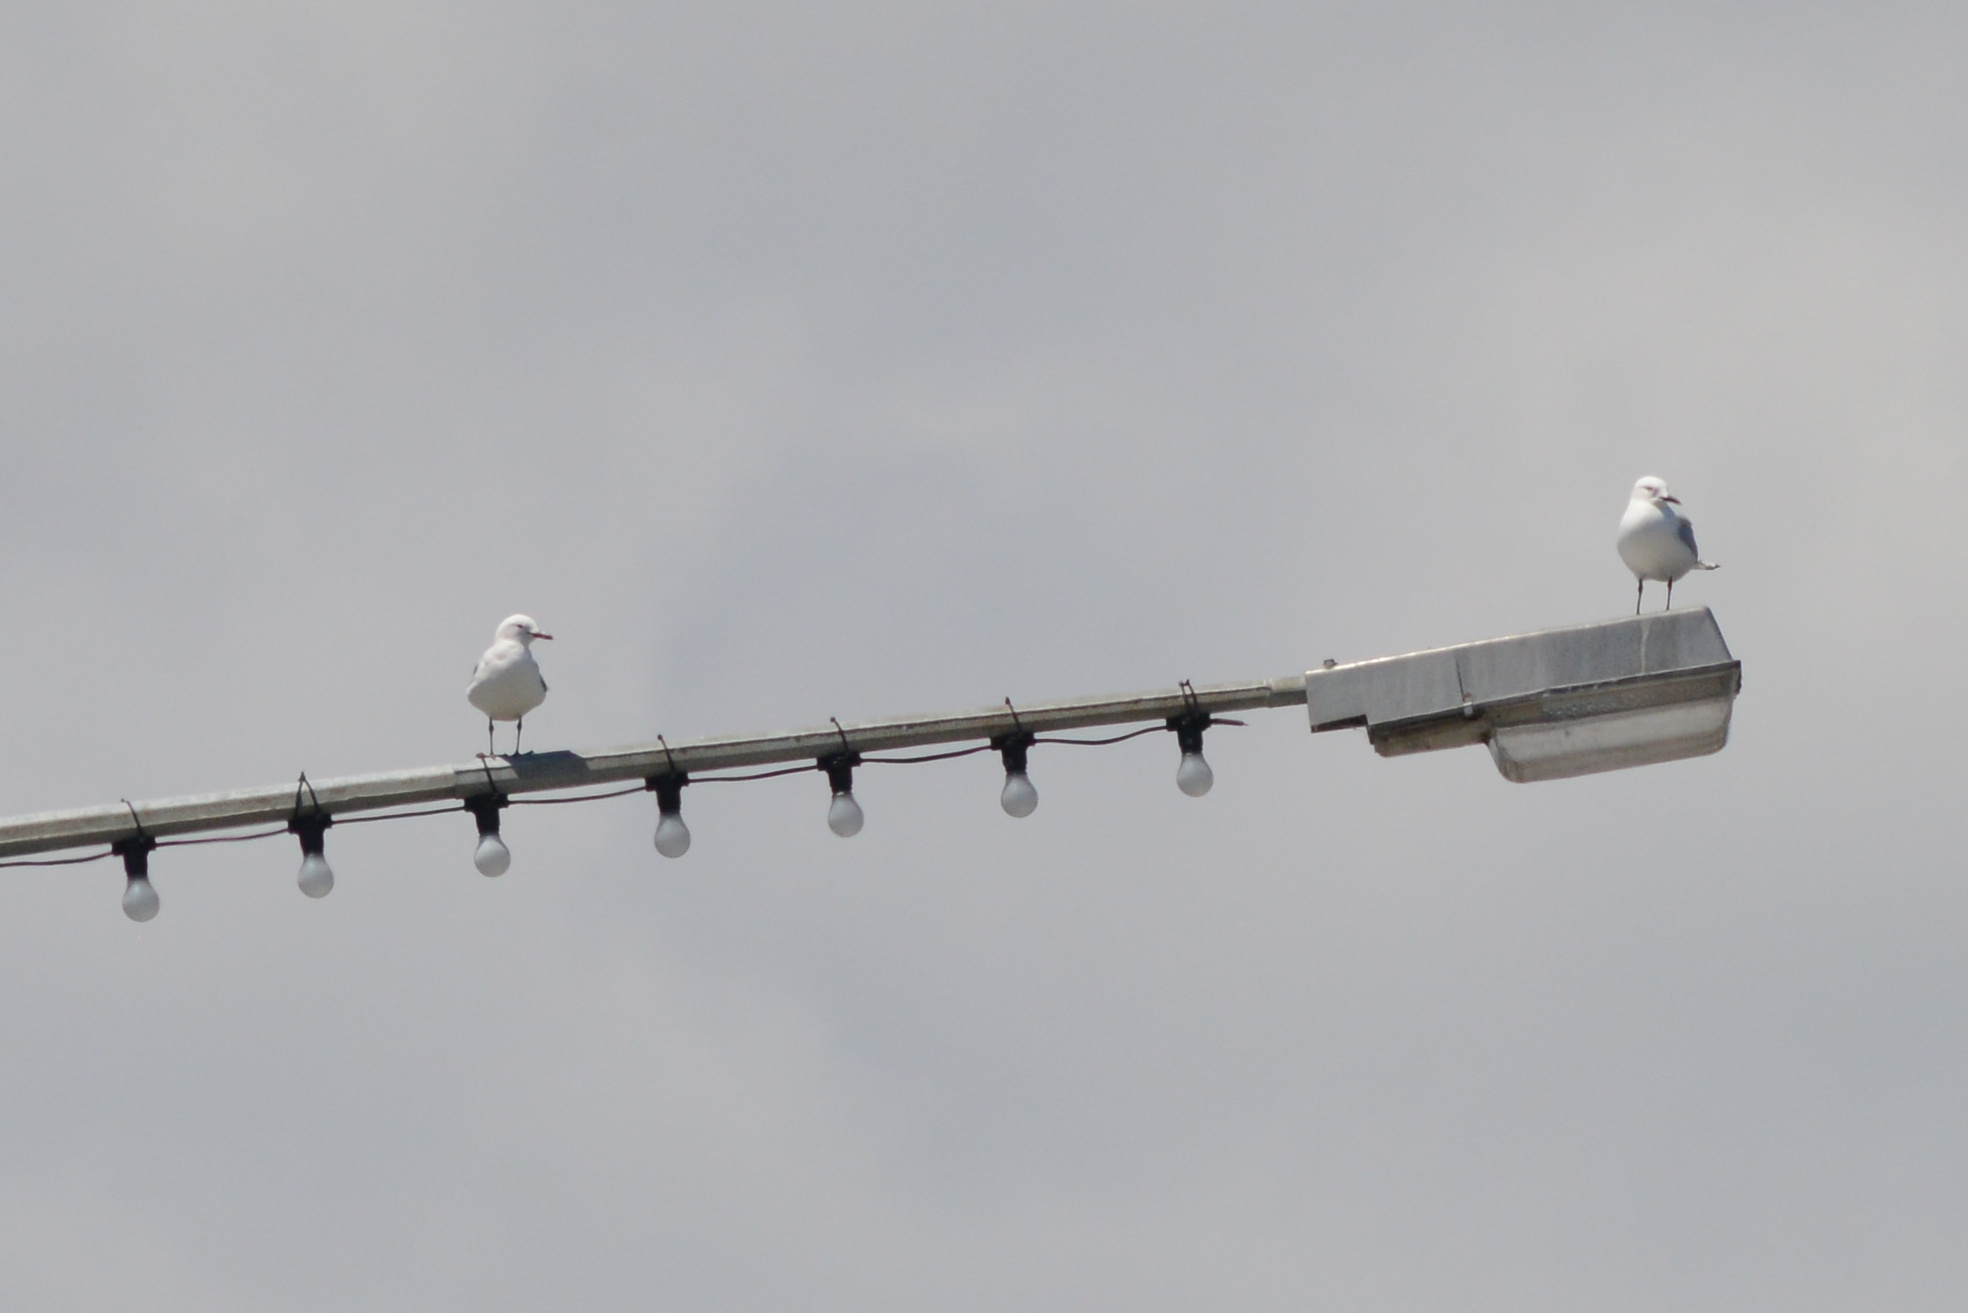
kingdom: Animalia
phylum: Chordata
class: Aves
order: Charadriiformes
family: Laridae
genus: Chroicocephalus
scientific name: Chroicocephalus novaehollandiae
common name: Silver gull
